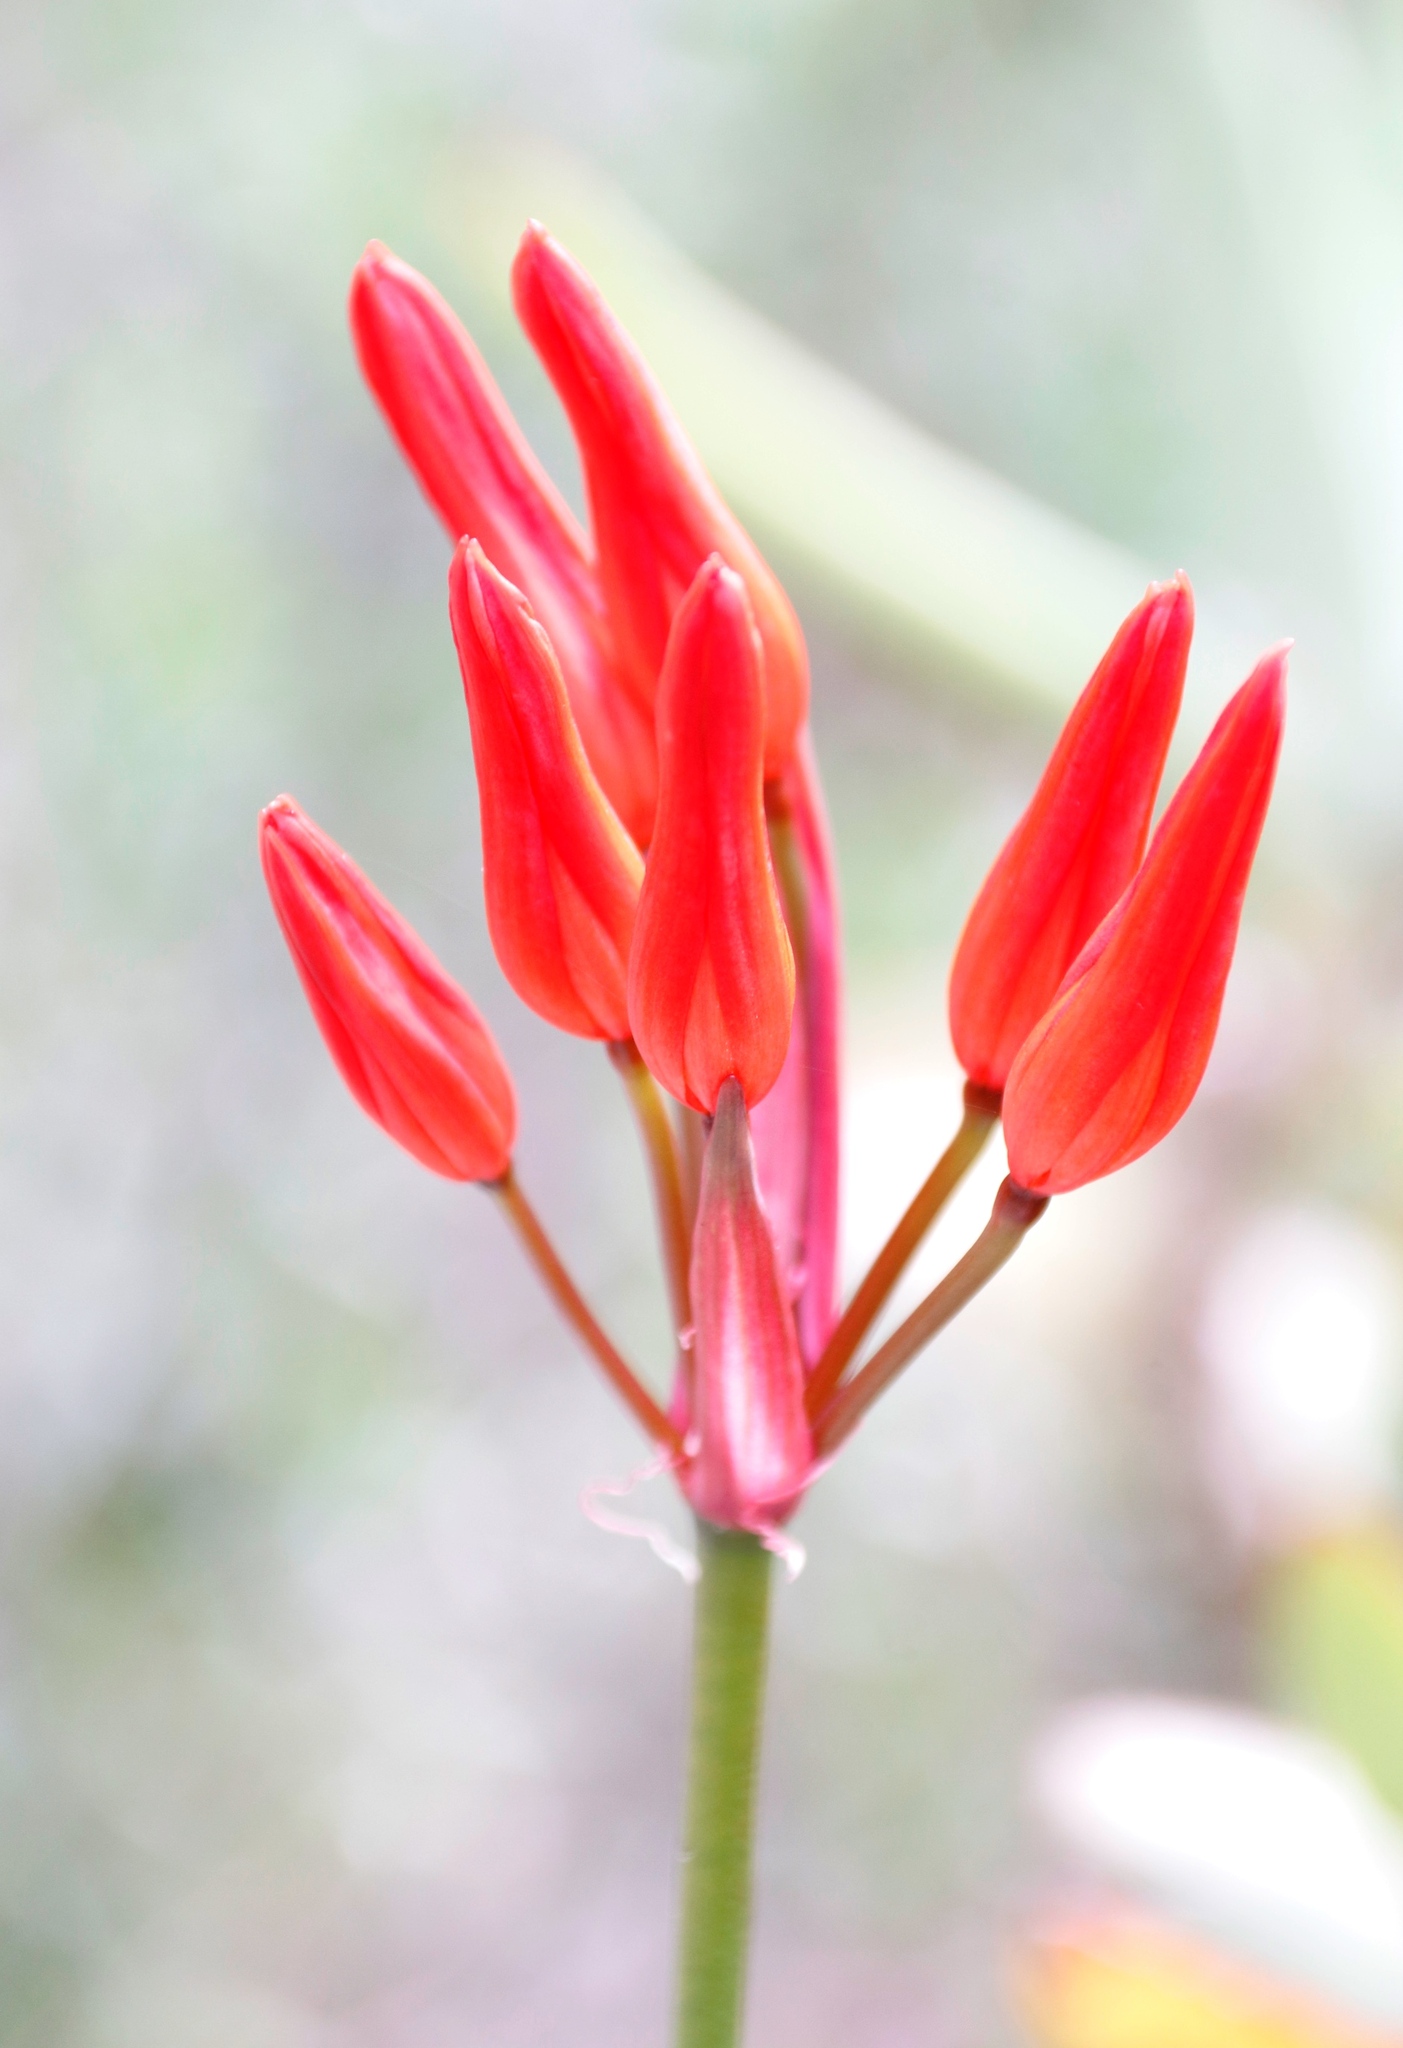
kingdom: Plantae
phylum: Tracheophyta
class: Liliopsida
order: Asparagales
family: Amaryllidaceae
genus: Nerine
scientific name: Nerine sarniensis
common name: Guernsey-lily
